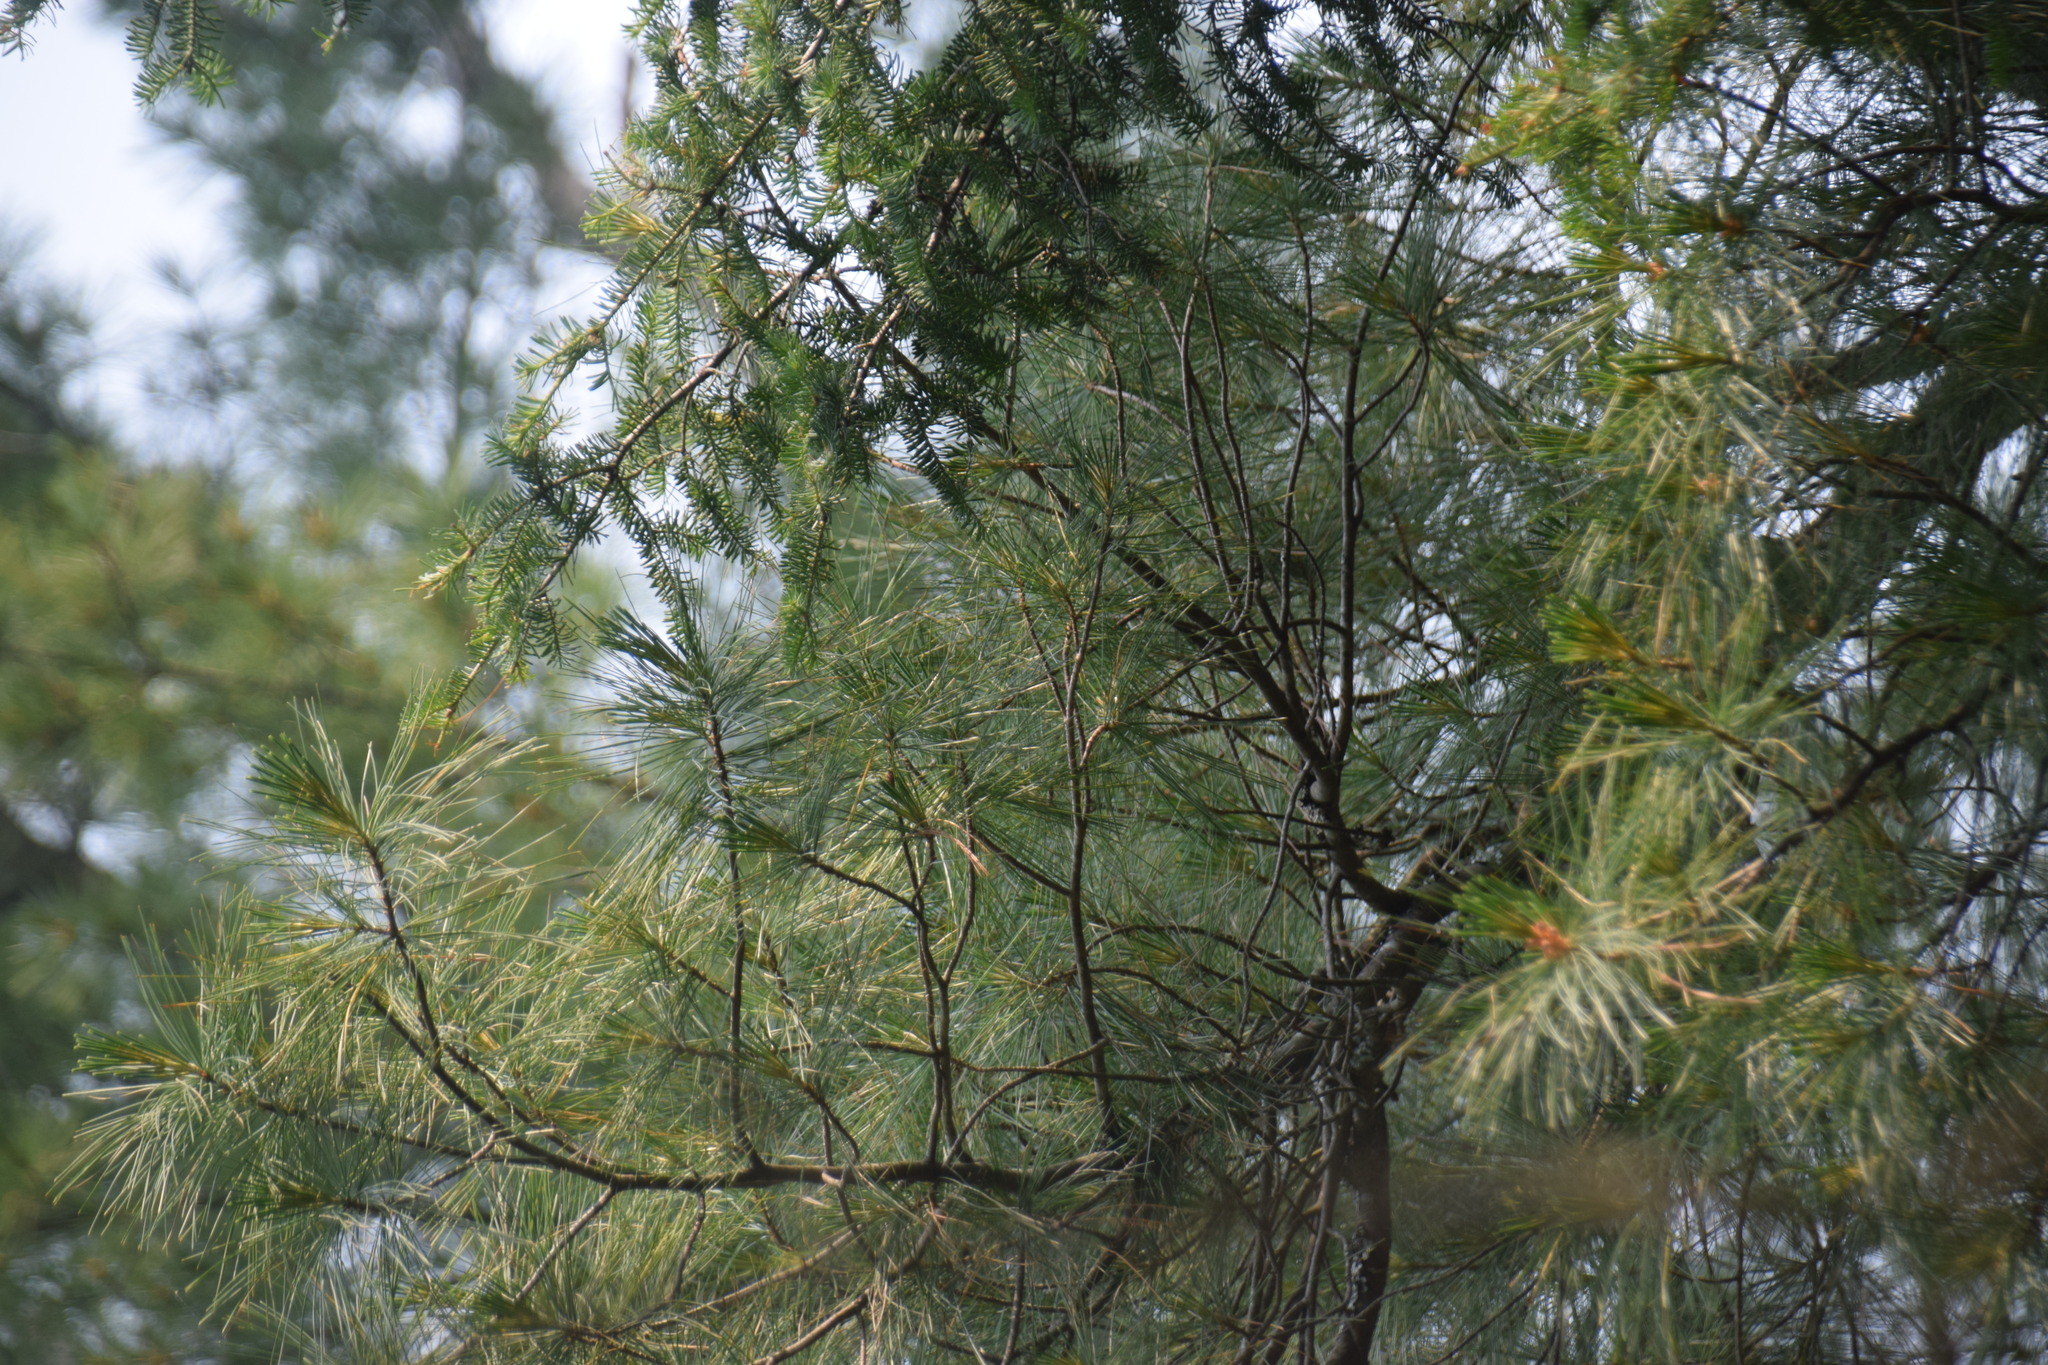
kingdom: Plantae
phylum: Tracheophyta
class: Pinopsida
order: Pinales
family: Pinaceae
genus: Pinus
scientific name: Pinus strobus
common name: Weymouth pine
